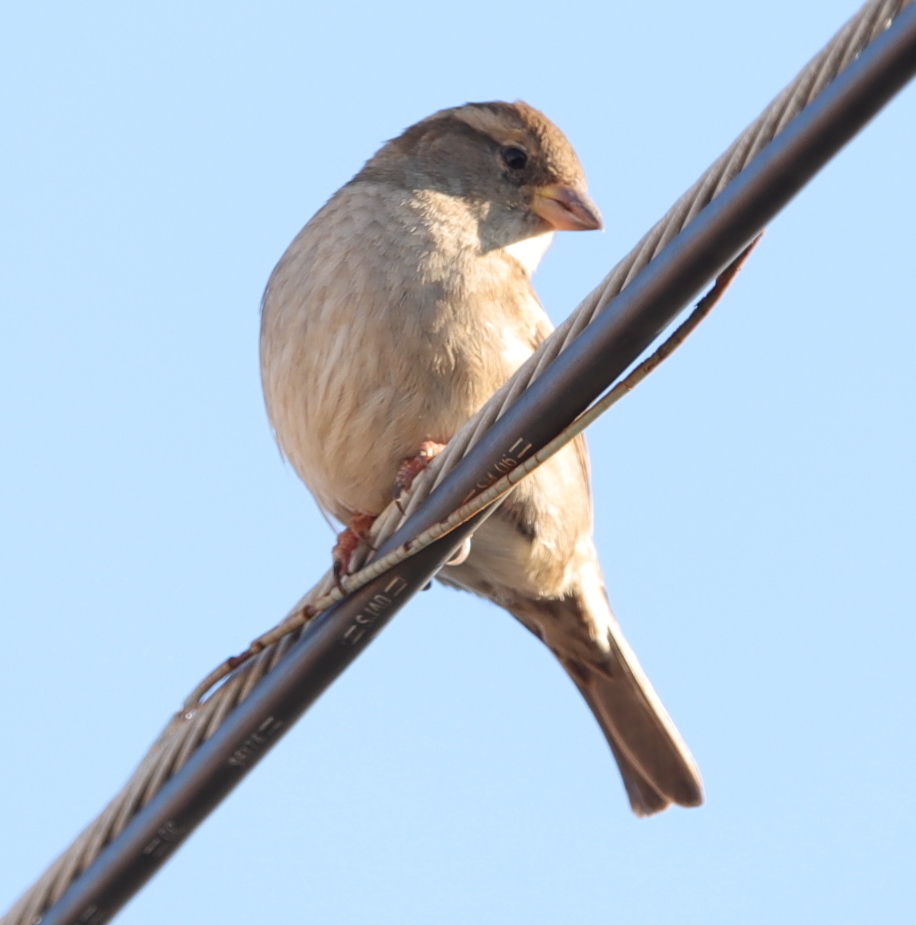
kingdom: Animalia
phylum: Chordata
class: Aves
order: Passeriformes
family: Passeridae
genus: Passer
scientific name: Passer domesticus
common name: House sparrow
